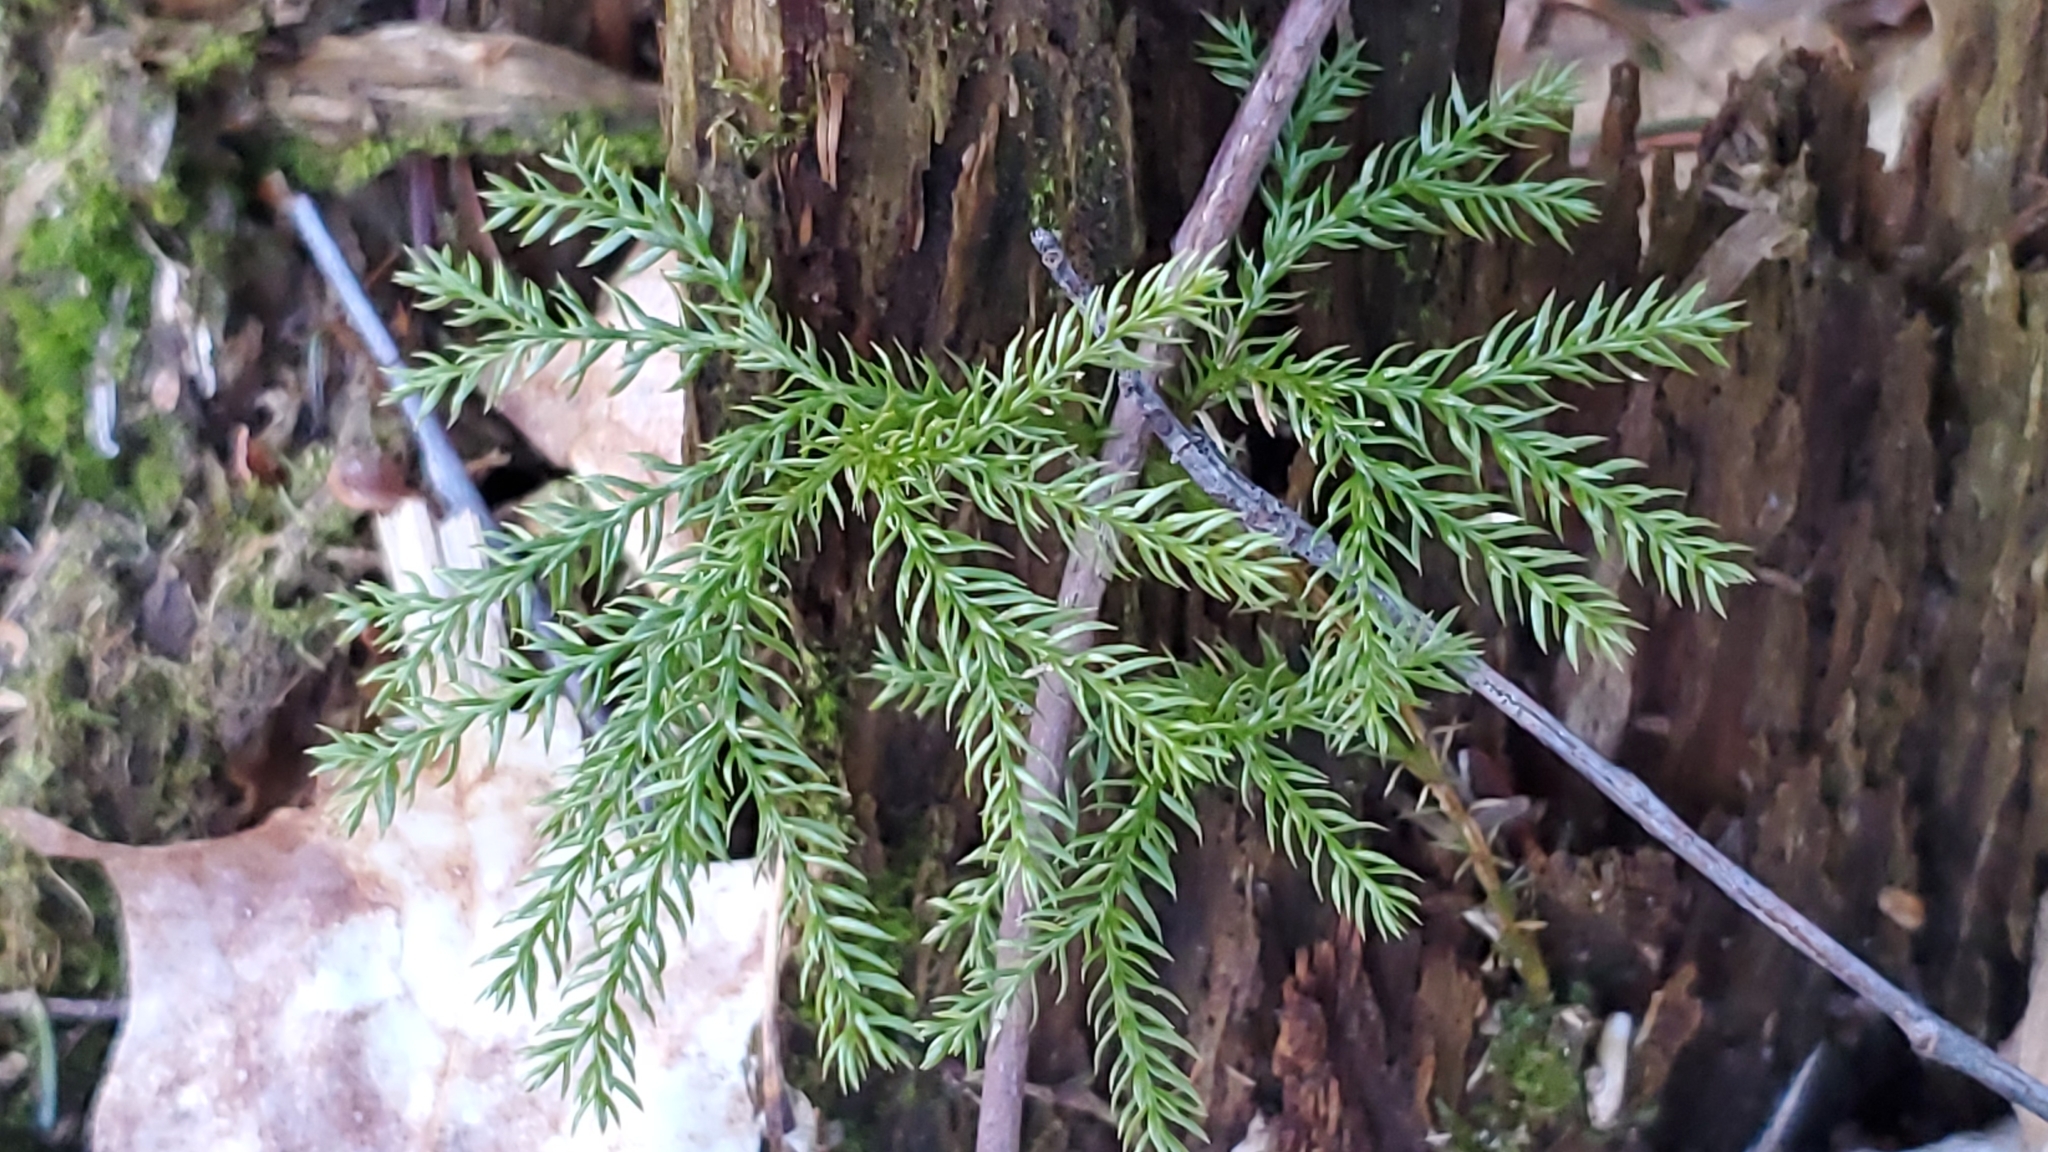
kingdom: Plantae
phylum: Tracheophyta
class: Lycopodiopsida
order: Lycopodiales
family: Lycopodiaceae
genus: Dendrolycopodium
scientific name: Dendrolycopodium dendroideum
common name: Northern tree-clubmoss
